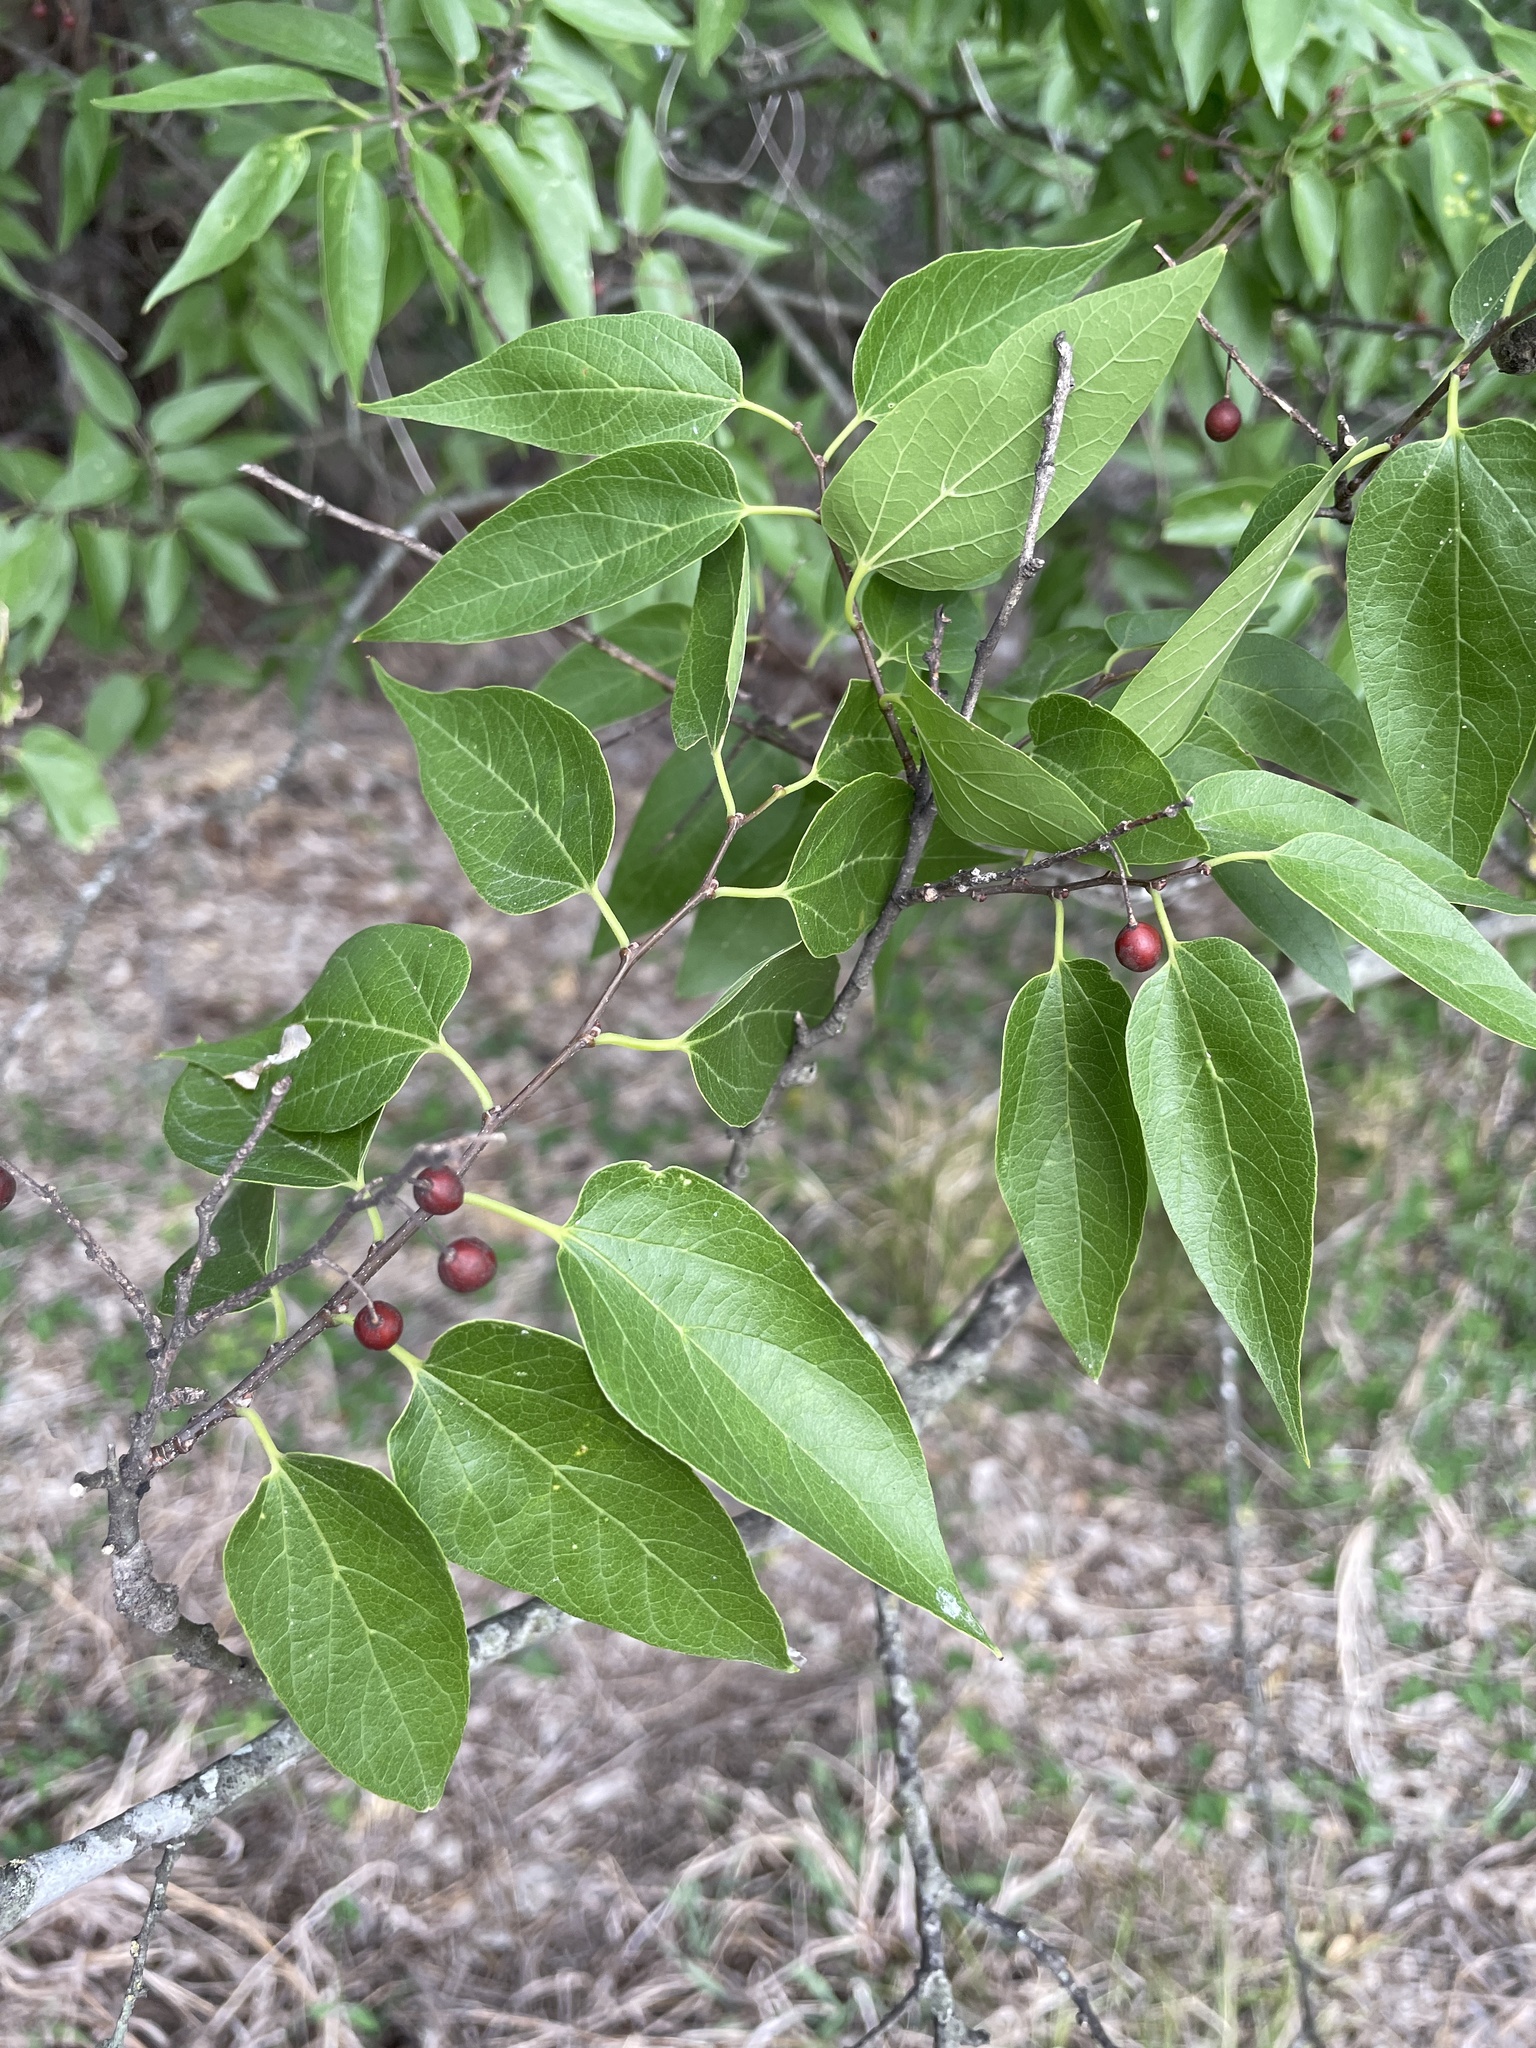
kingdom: Plantae
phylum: Tracheophyta
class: Magnoliopsida
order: Rosales
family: Cannabaceae
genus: Celtis
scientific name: Celtis laevigata
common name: Sugarberry
